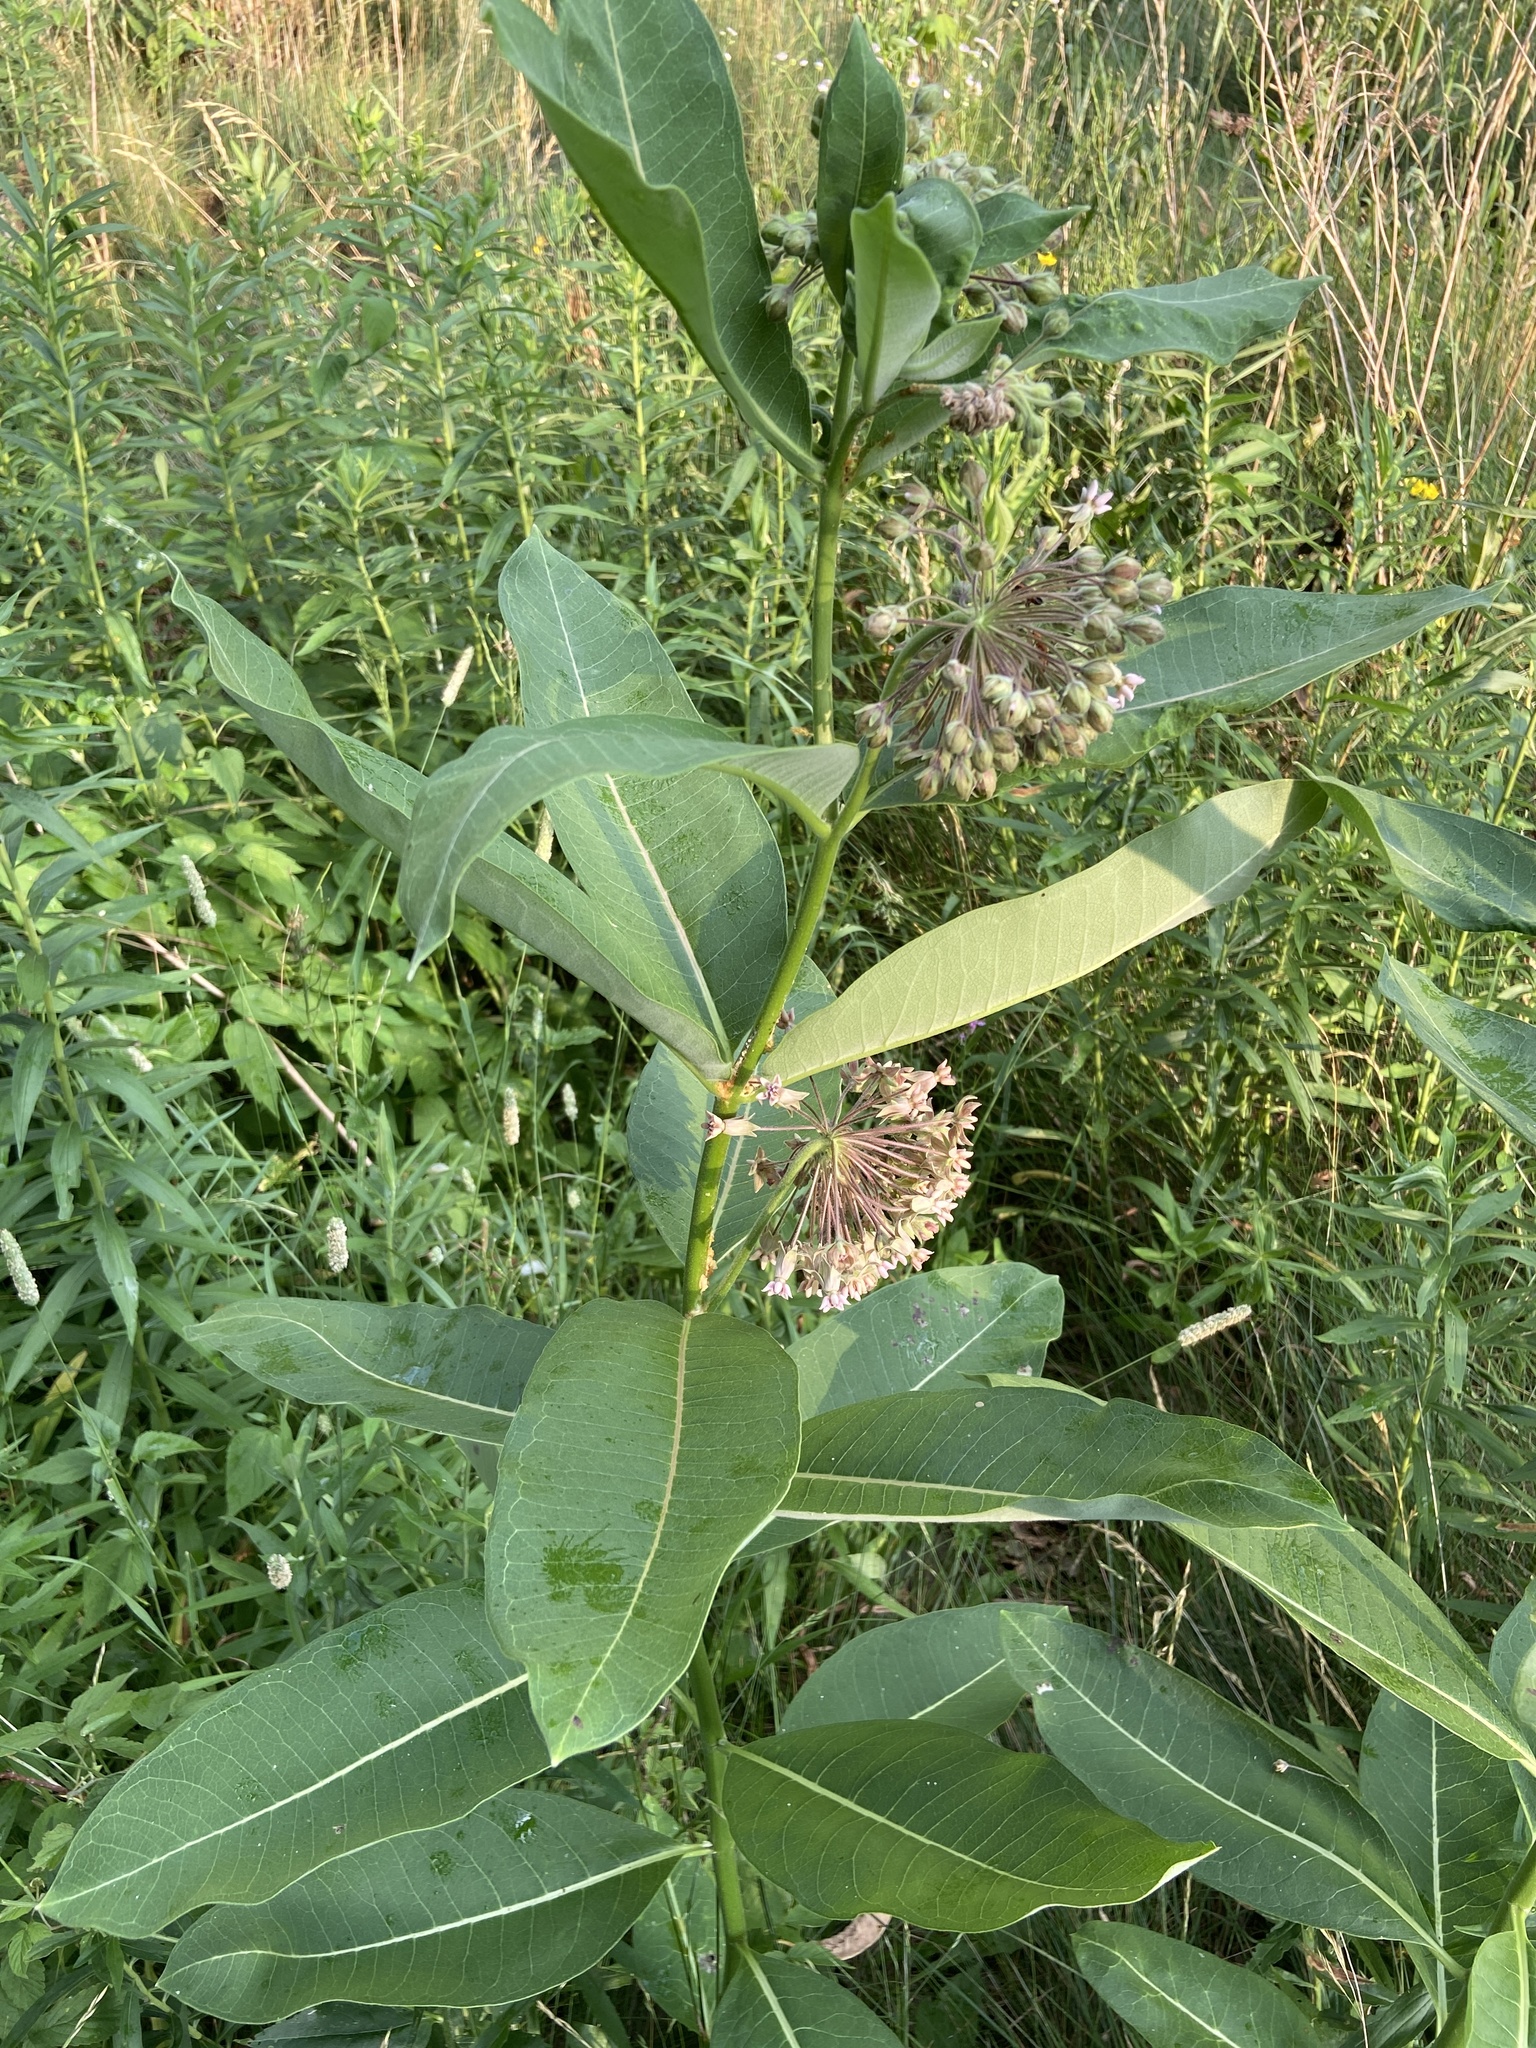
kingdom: Plantae
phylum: Tracheophyta
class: Magnoliopsida
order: Gentianales
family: Apocynaceae
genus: Asclepias
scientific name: Asclepias syriaca
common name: Common milkweed
